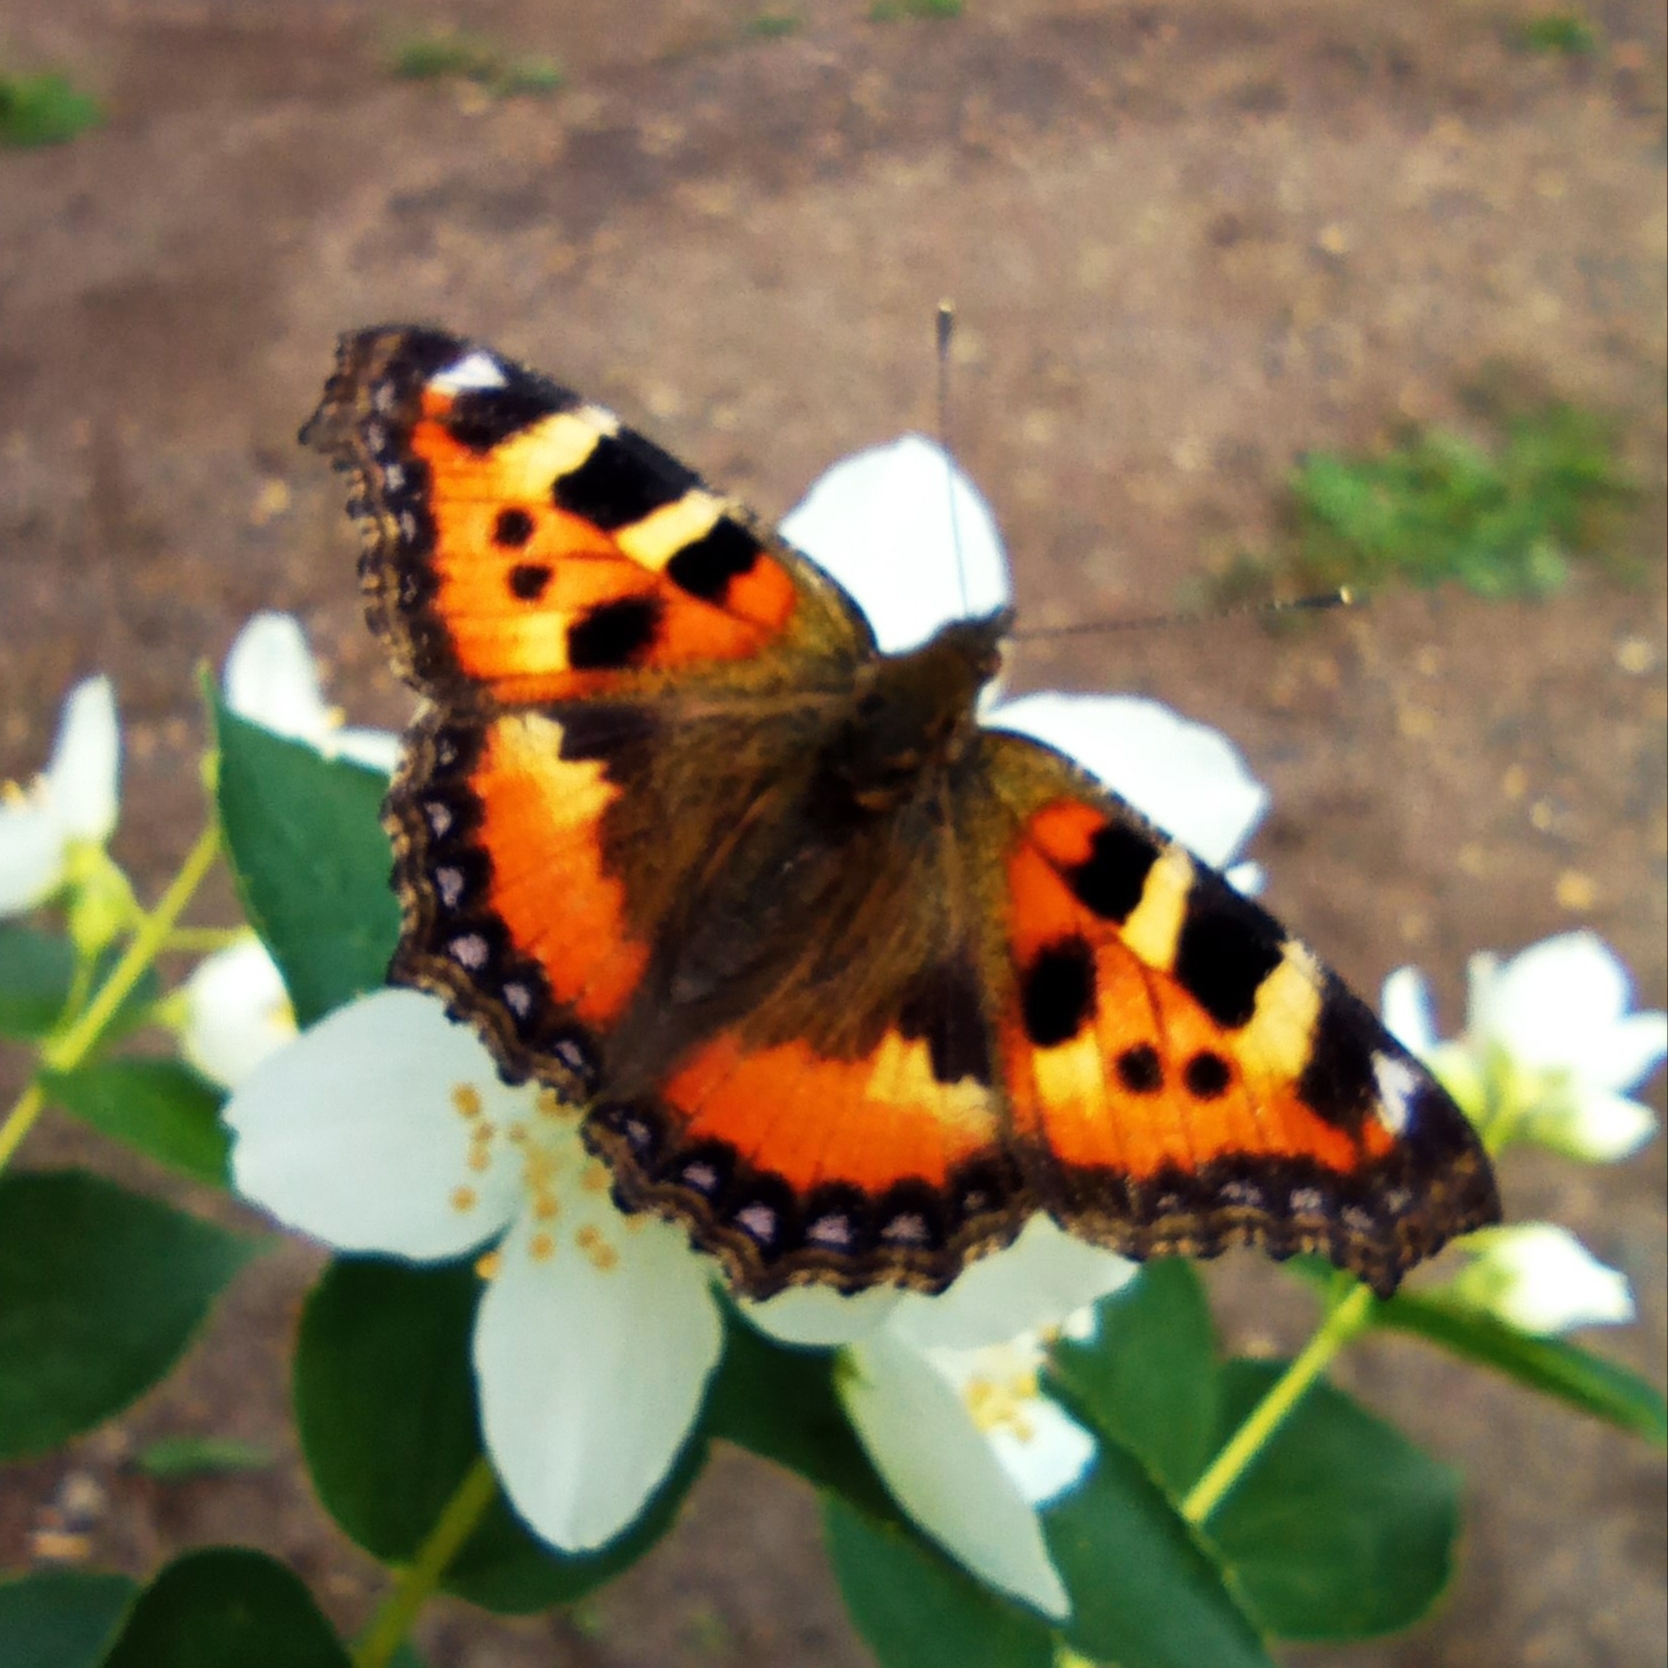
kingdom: Animalia
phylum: Arthropoda
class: Insecta
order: Lepidoptera
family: Nymphalidae
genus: Aglais
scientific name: Aglais urticae
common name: Small tortoiseshell
